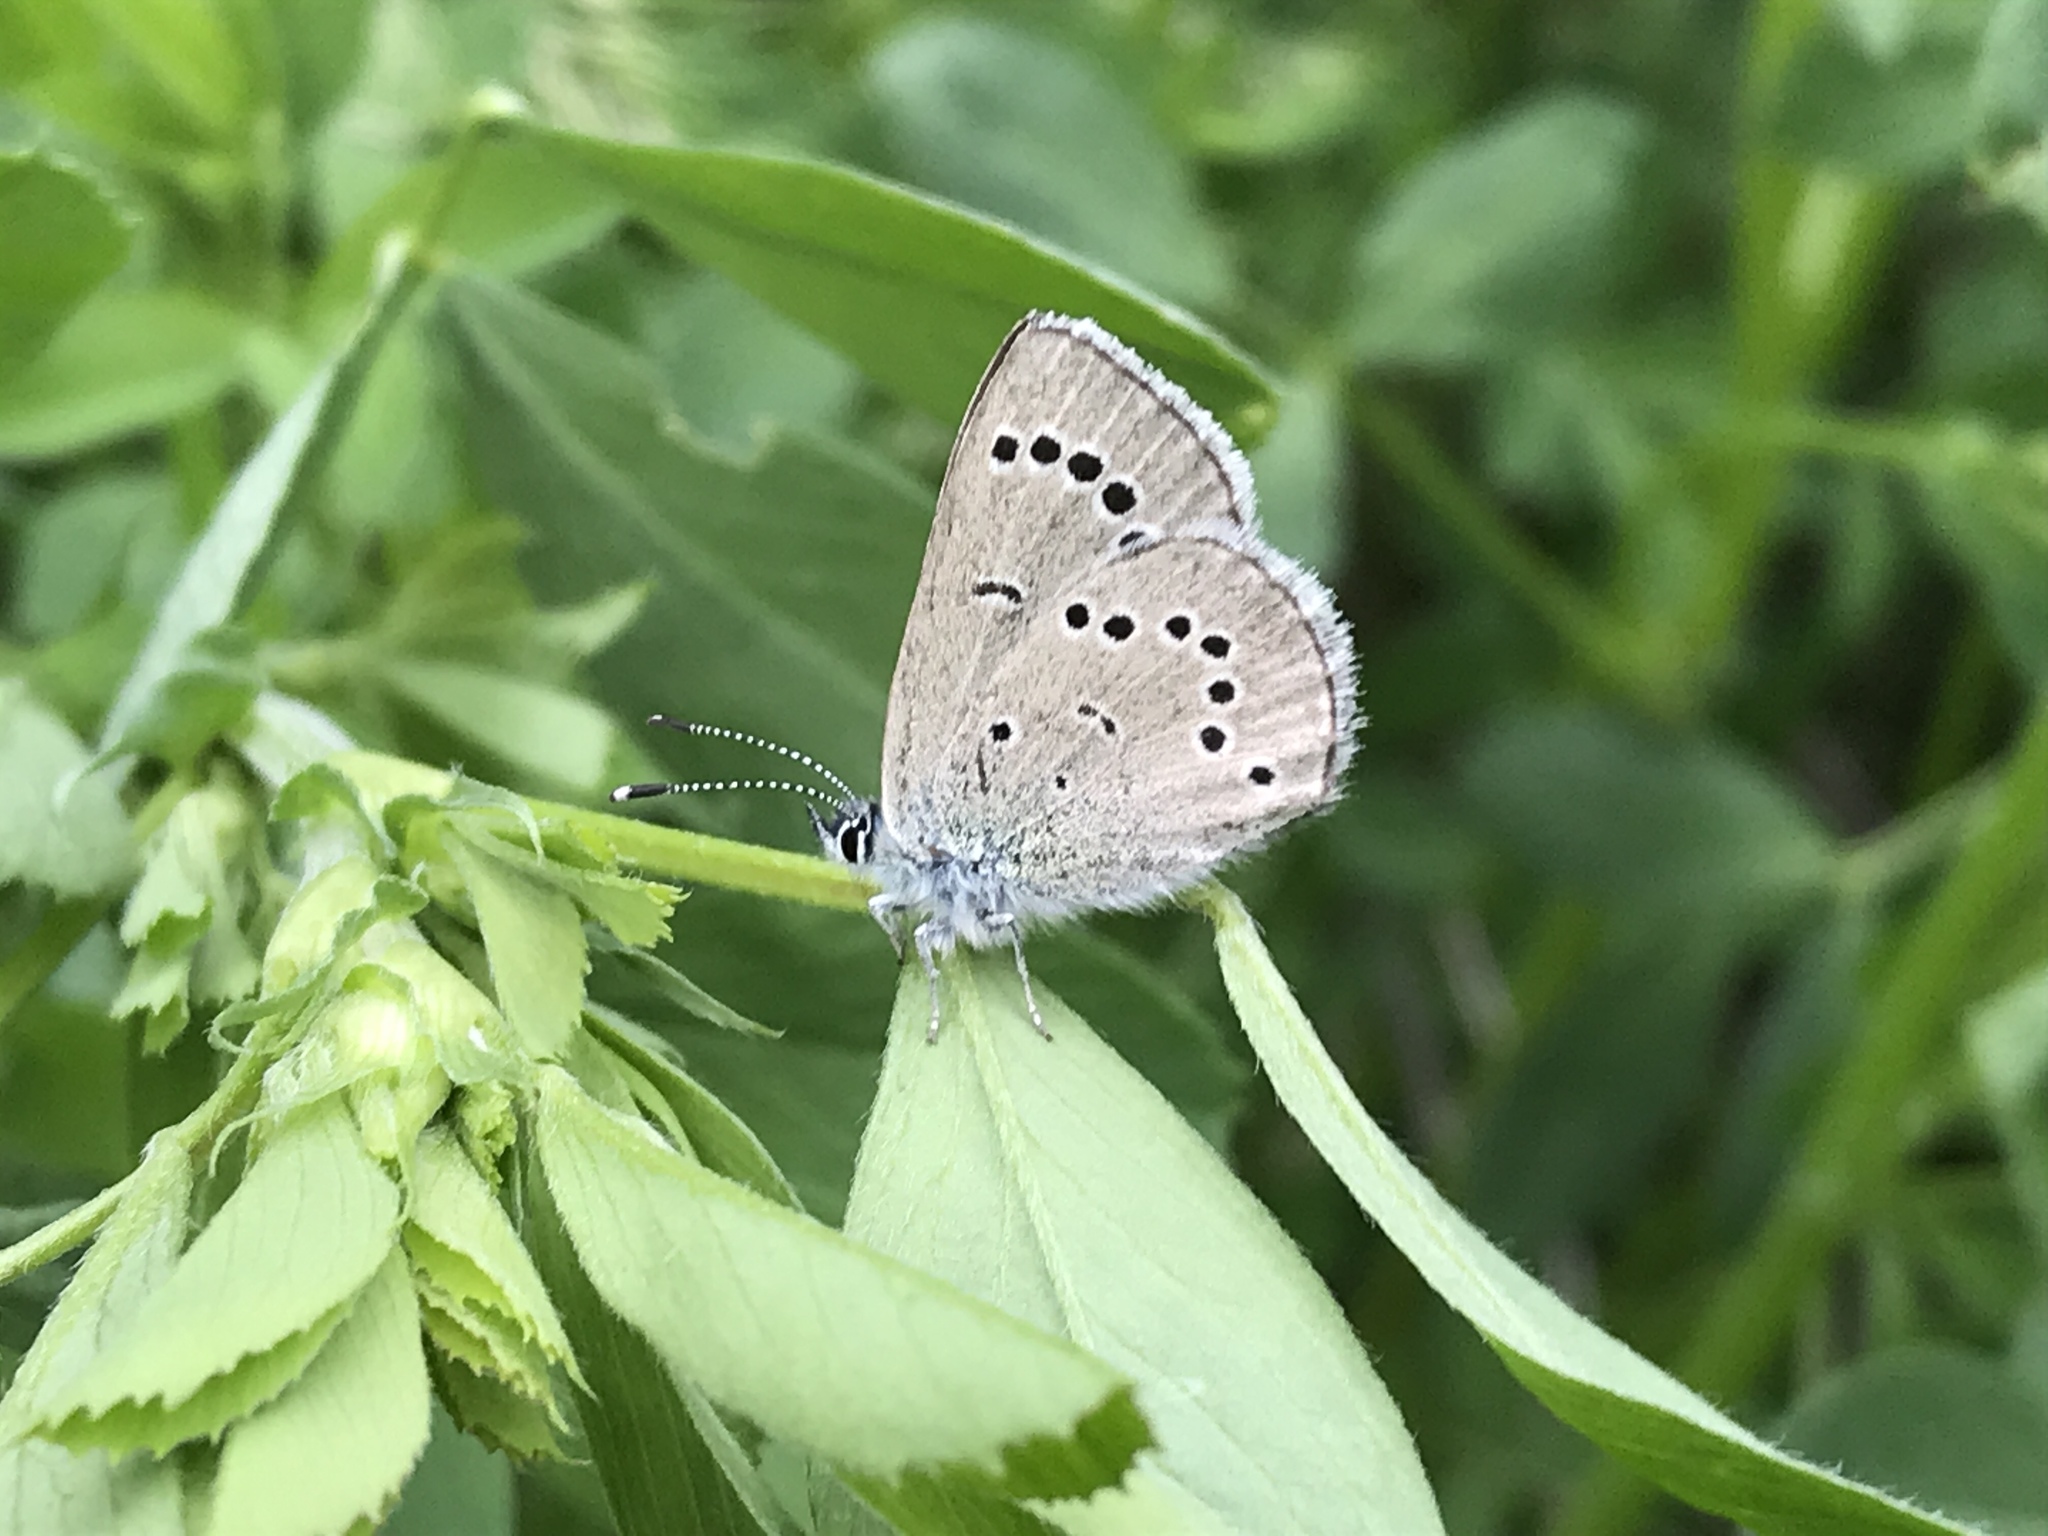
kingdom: Animalia
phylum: Arthropoda
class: Insecta
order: Lepidoptera
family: Lycaenidae
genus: Glaucopsyche
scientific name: Glaucopsyche lygdamus
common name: Silvery blue
